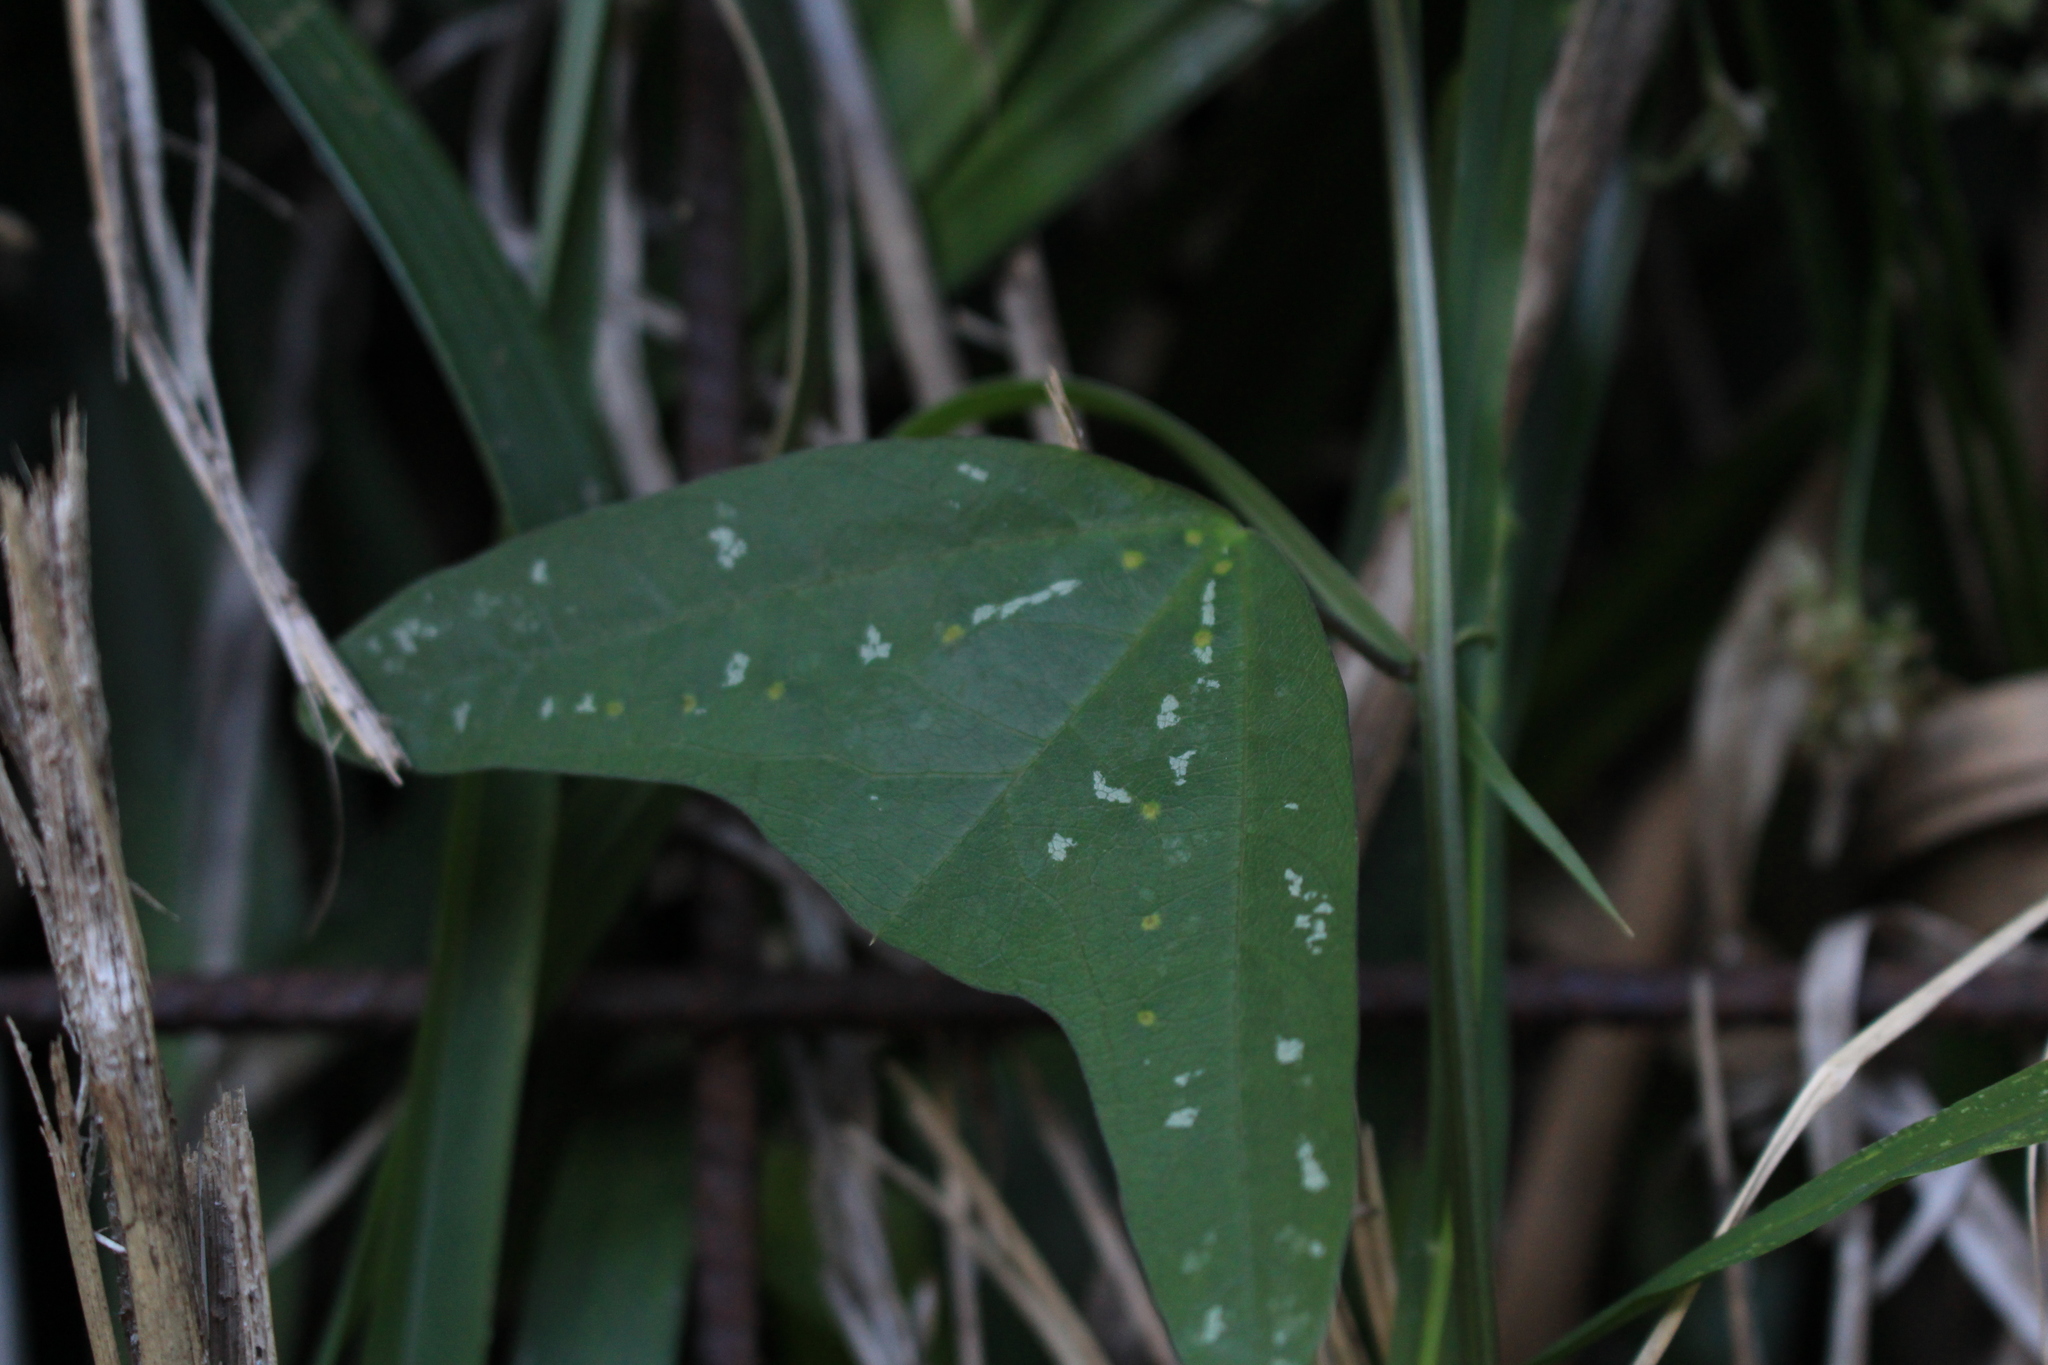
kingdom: Plantae
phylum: Tracheophyta
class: Magnoliopsida
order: Malpighiales
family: Passifloraceae
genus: Passiflora
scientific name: Passiflora biflora
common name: Twoflower passionflower
